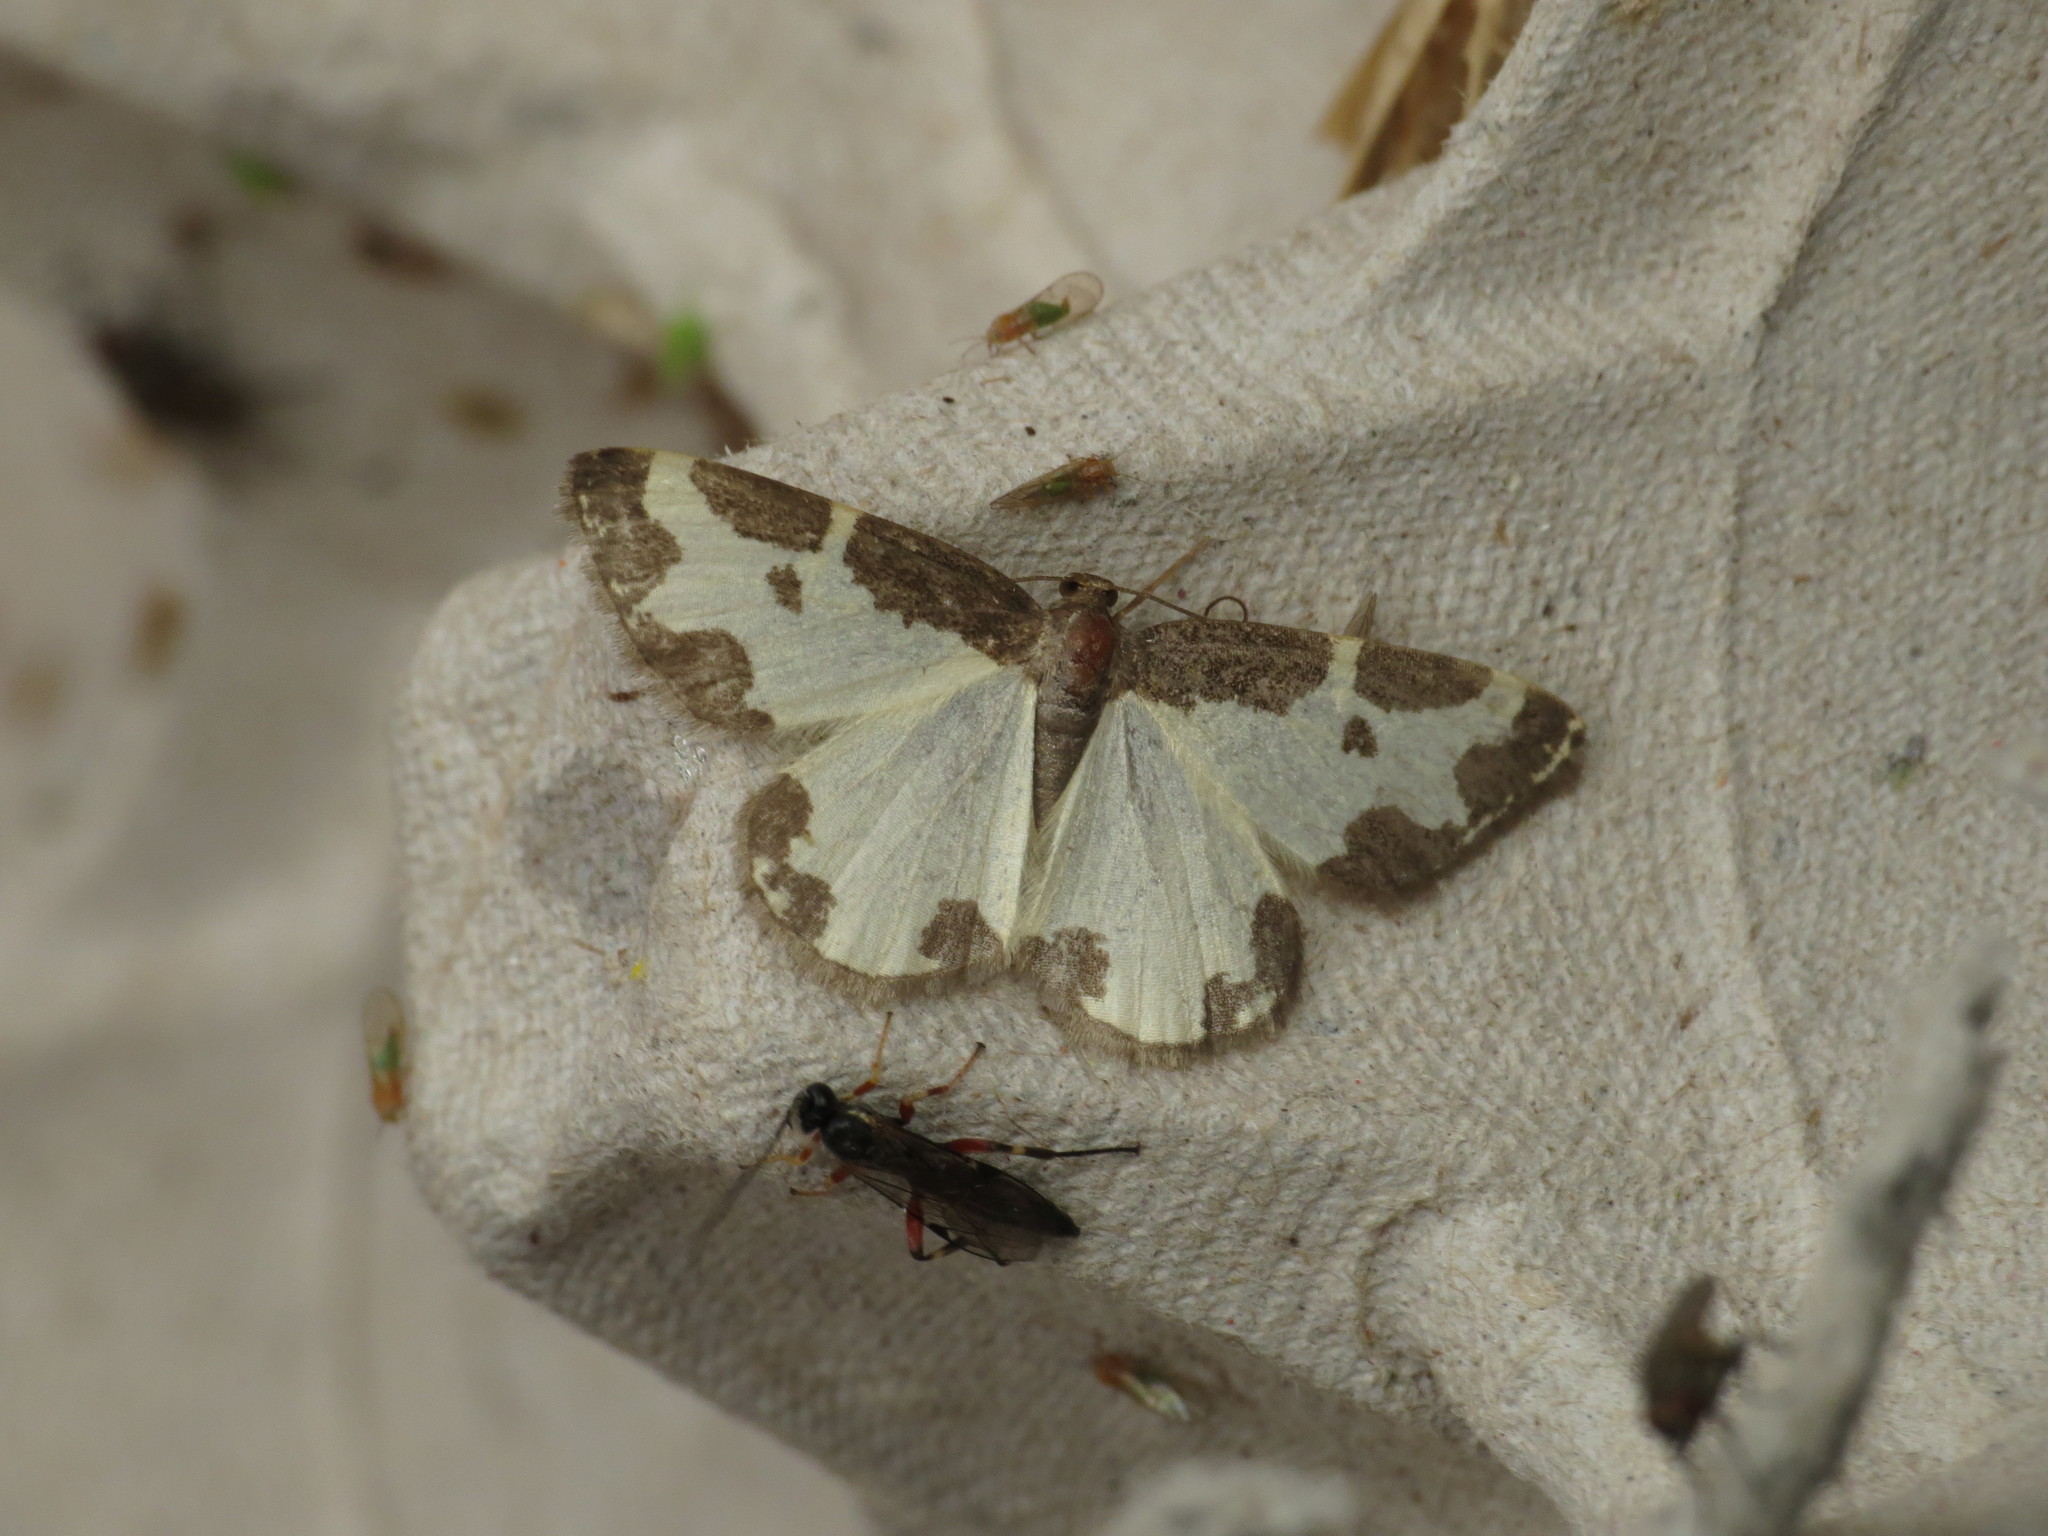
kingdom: Animalia
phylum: Arthropoda
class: Insecta
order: Lepidoptera
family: Geometridae
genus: Lomaspilis
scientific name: Lomaspilis marginata
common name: Clouded border
